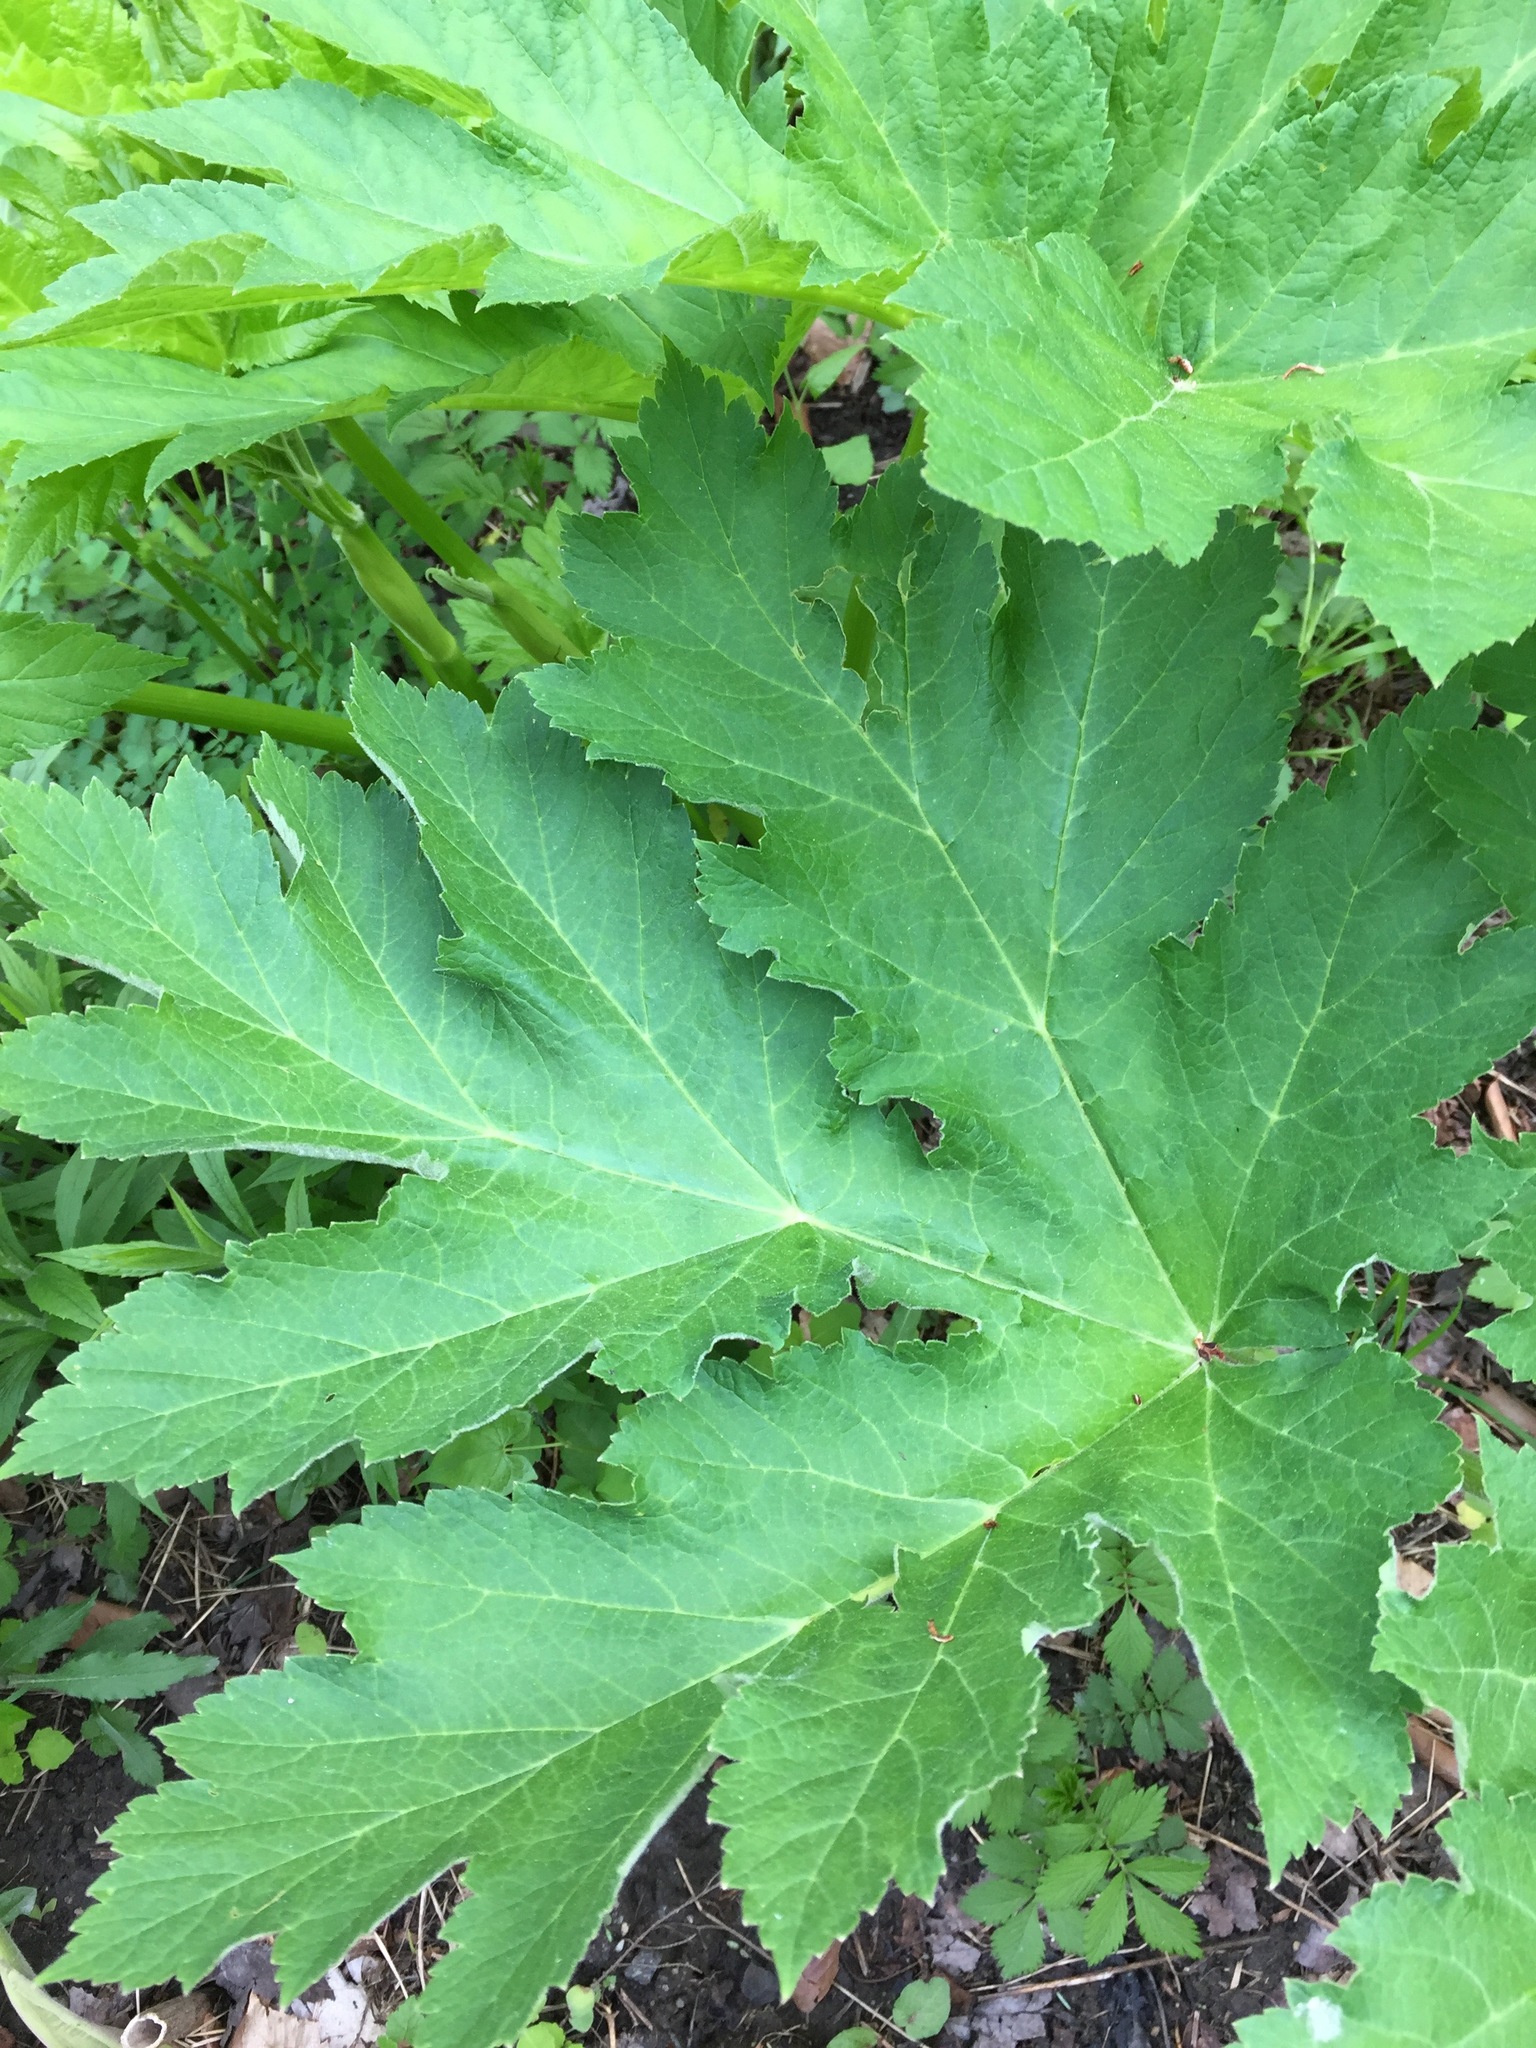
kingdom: Plantae
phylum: Tracheophyta
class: Magnoliopsida
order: Apiales
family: Apiaceae
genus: Heracleum
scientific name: Heracleum maximum
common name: American cow parsnip
